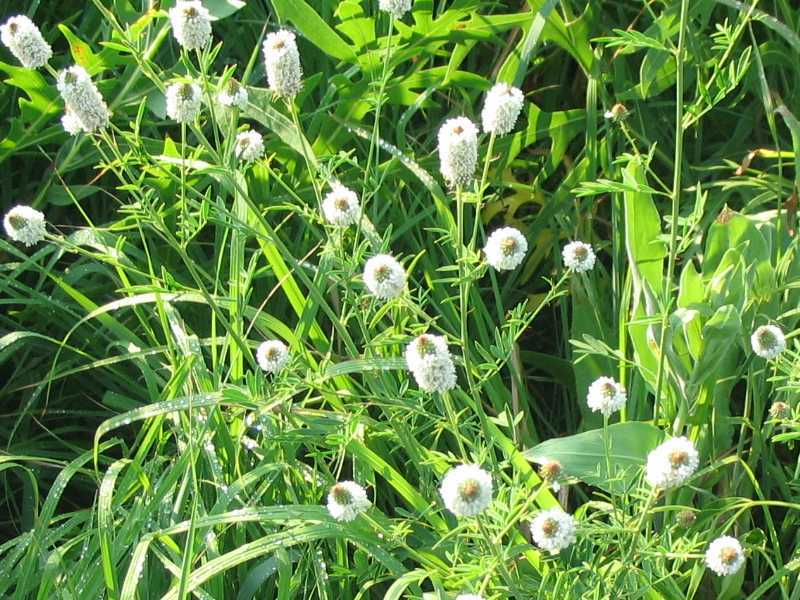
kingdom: Plantae
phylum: Tracheophyta
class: Magnoliopsida
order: Fabales
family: Fabaceae
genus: Dalea
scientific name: Dalea candida
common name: White prairie-clover
